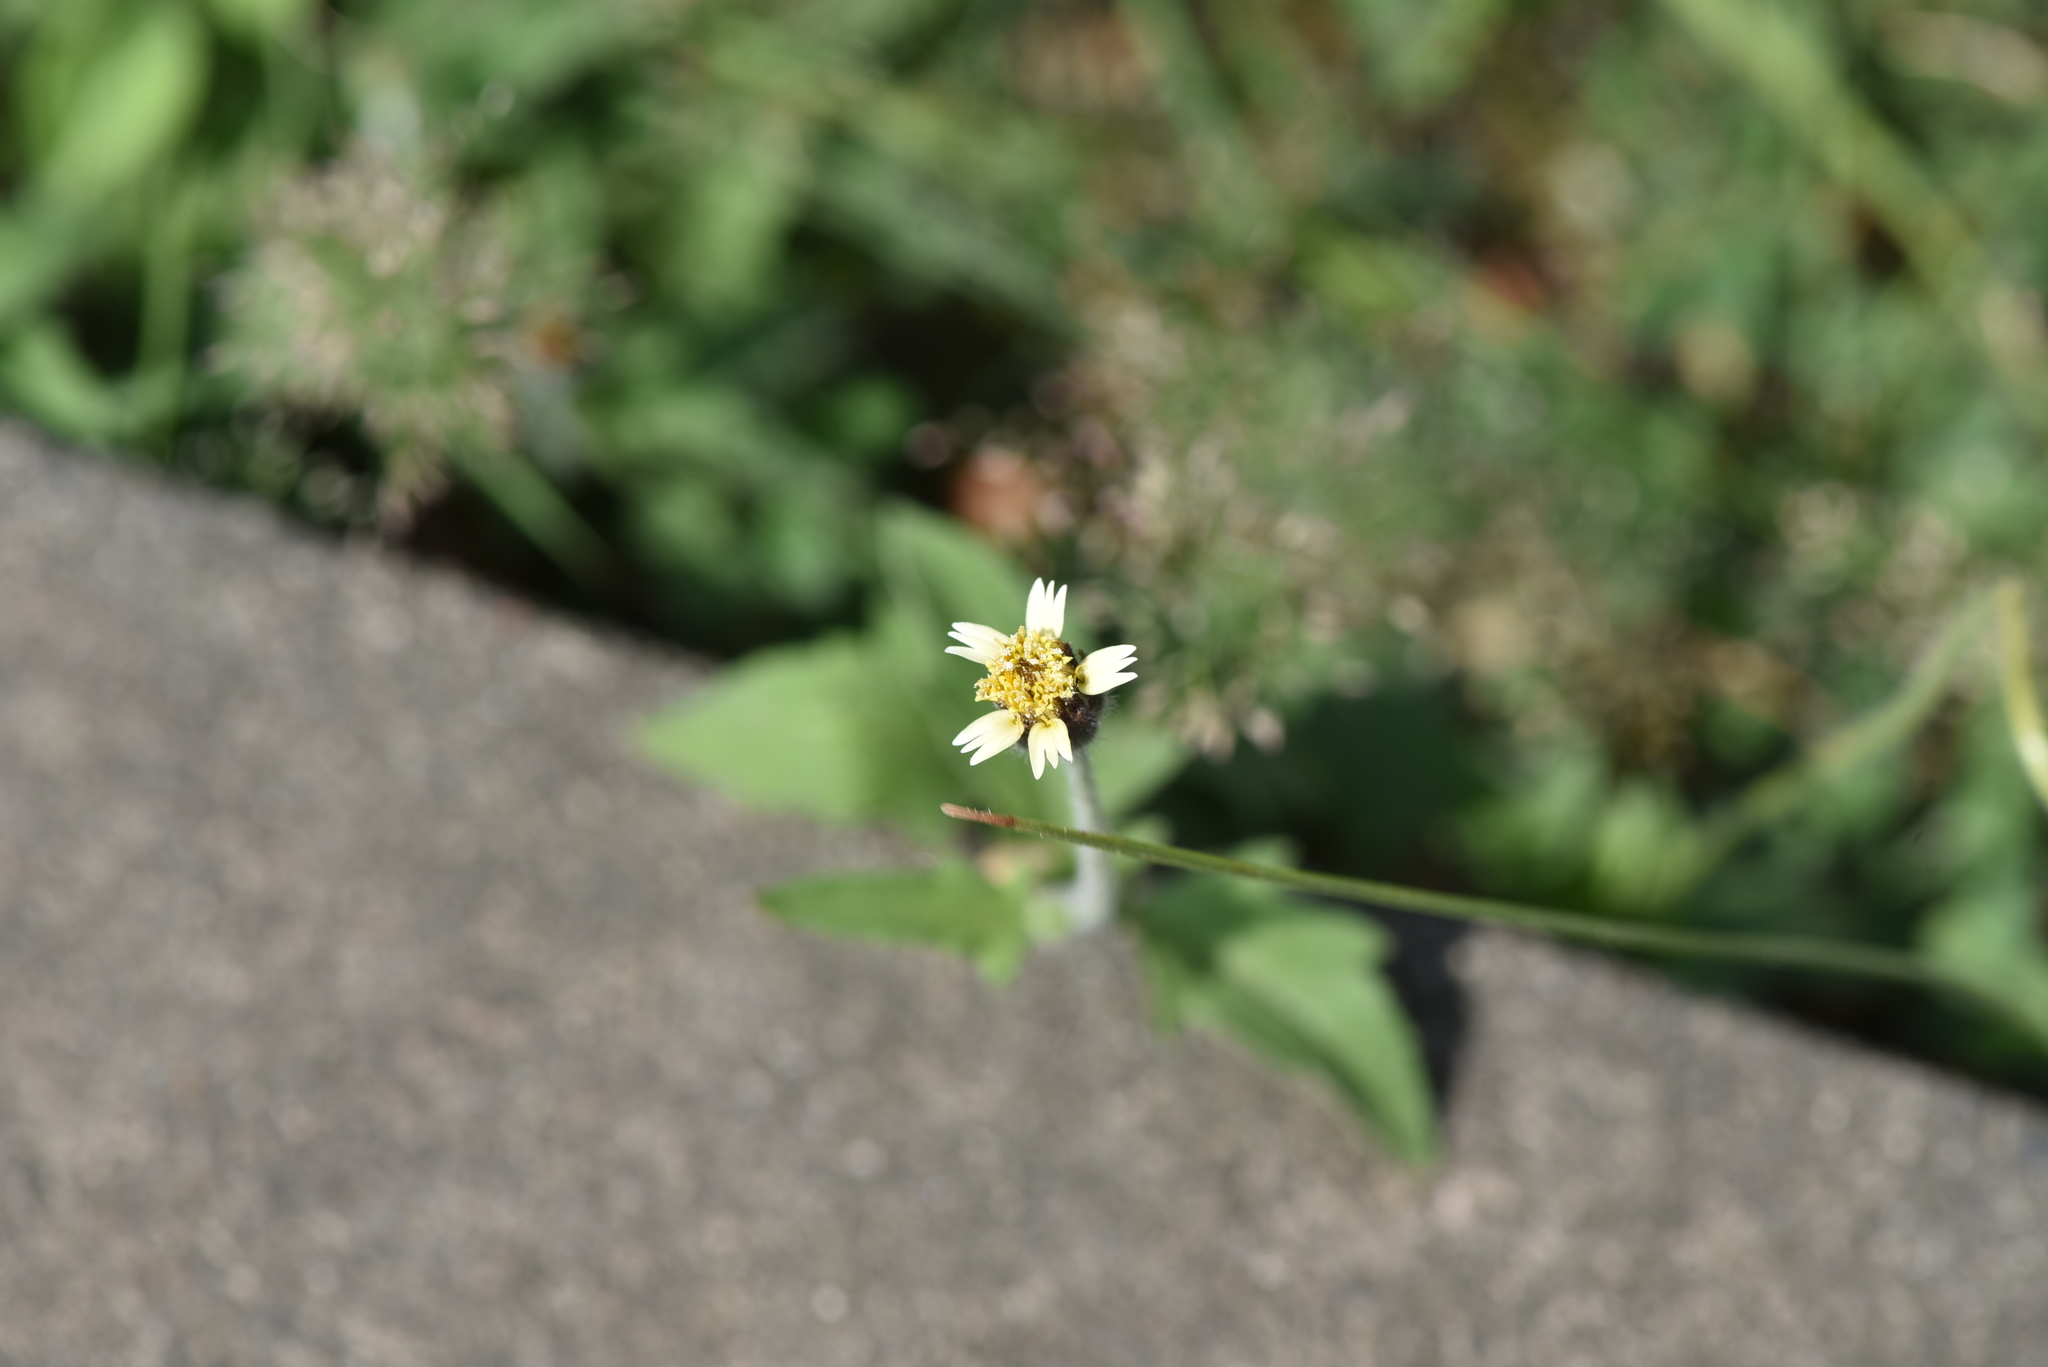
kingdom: Plantae
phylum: Tracheophyta
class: Magnoliopsida
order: Asterales
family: Asteraceae
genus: Tridax
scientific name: Tridax procumbens
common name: Coatbuttons
